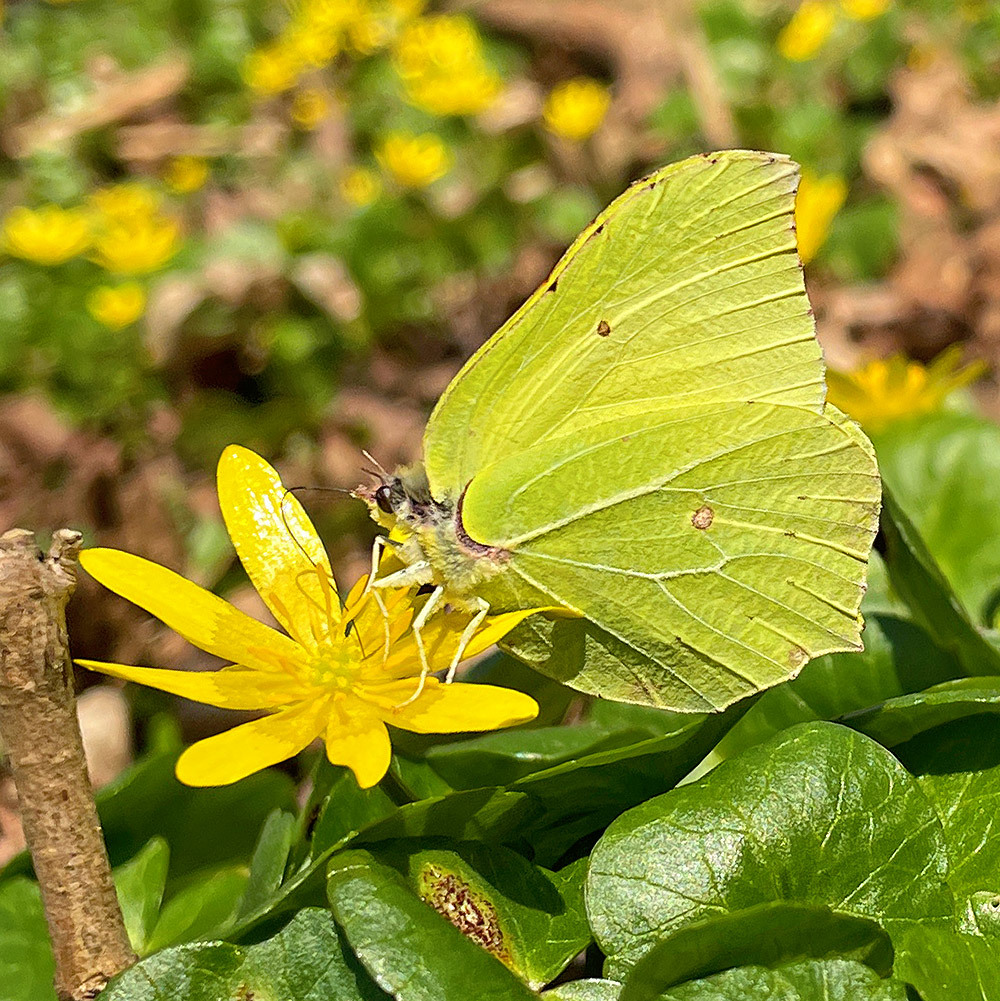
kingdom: Animalia
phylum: Arthropoda
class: Insecta
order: Lepidoptera
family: Pieridae
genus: Gonepteryx
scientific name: Gonepteryx rhamni
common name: Brimstone
